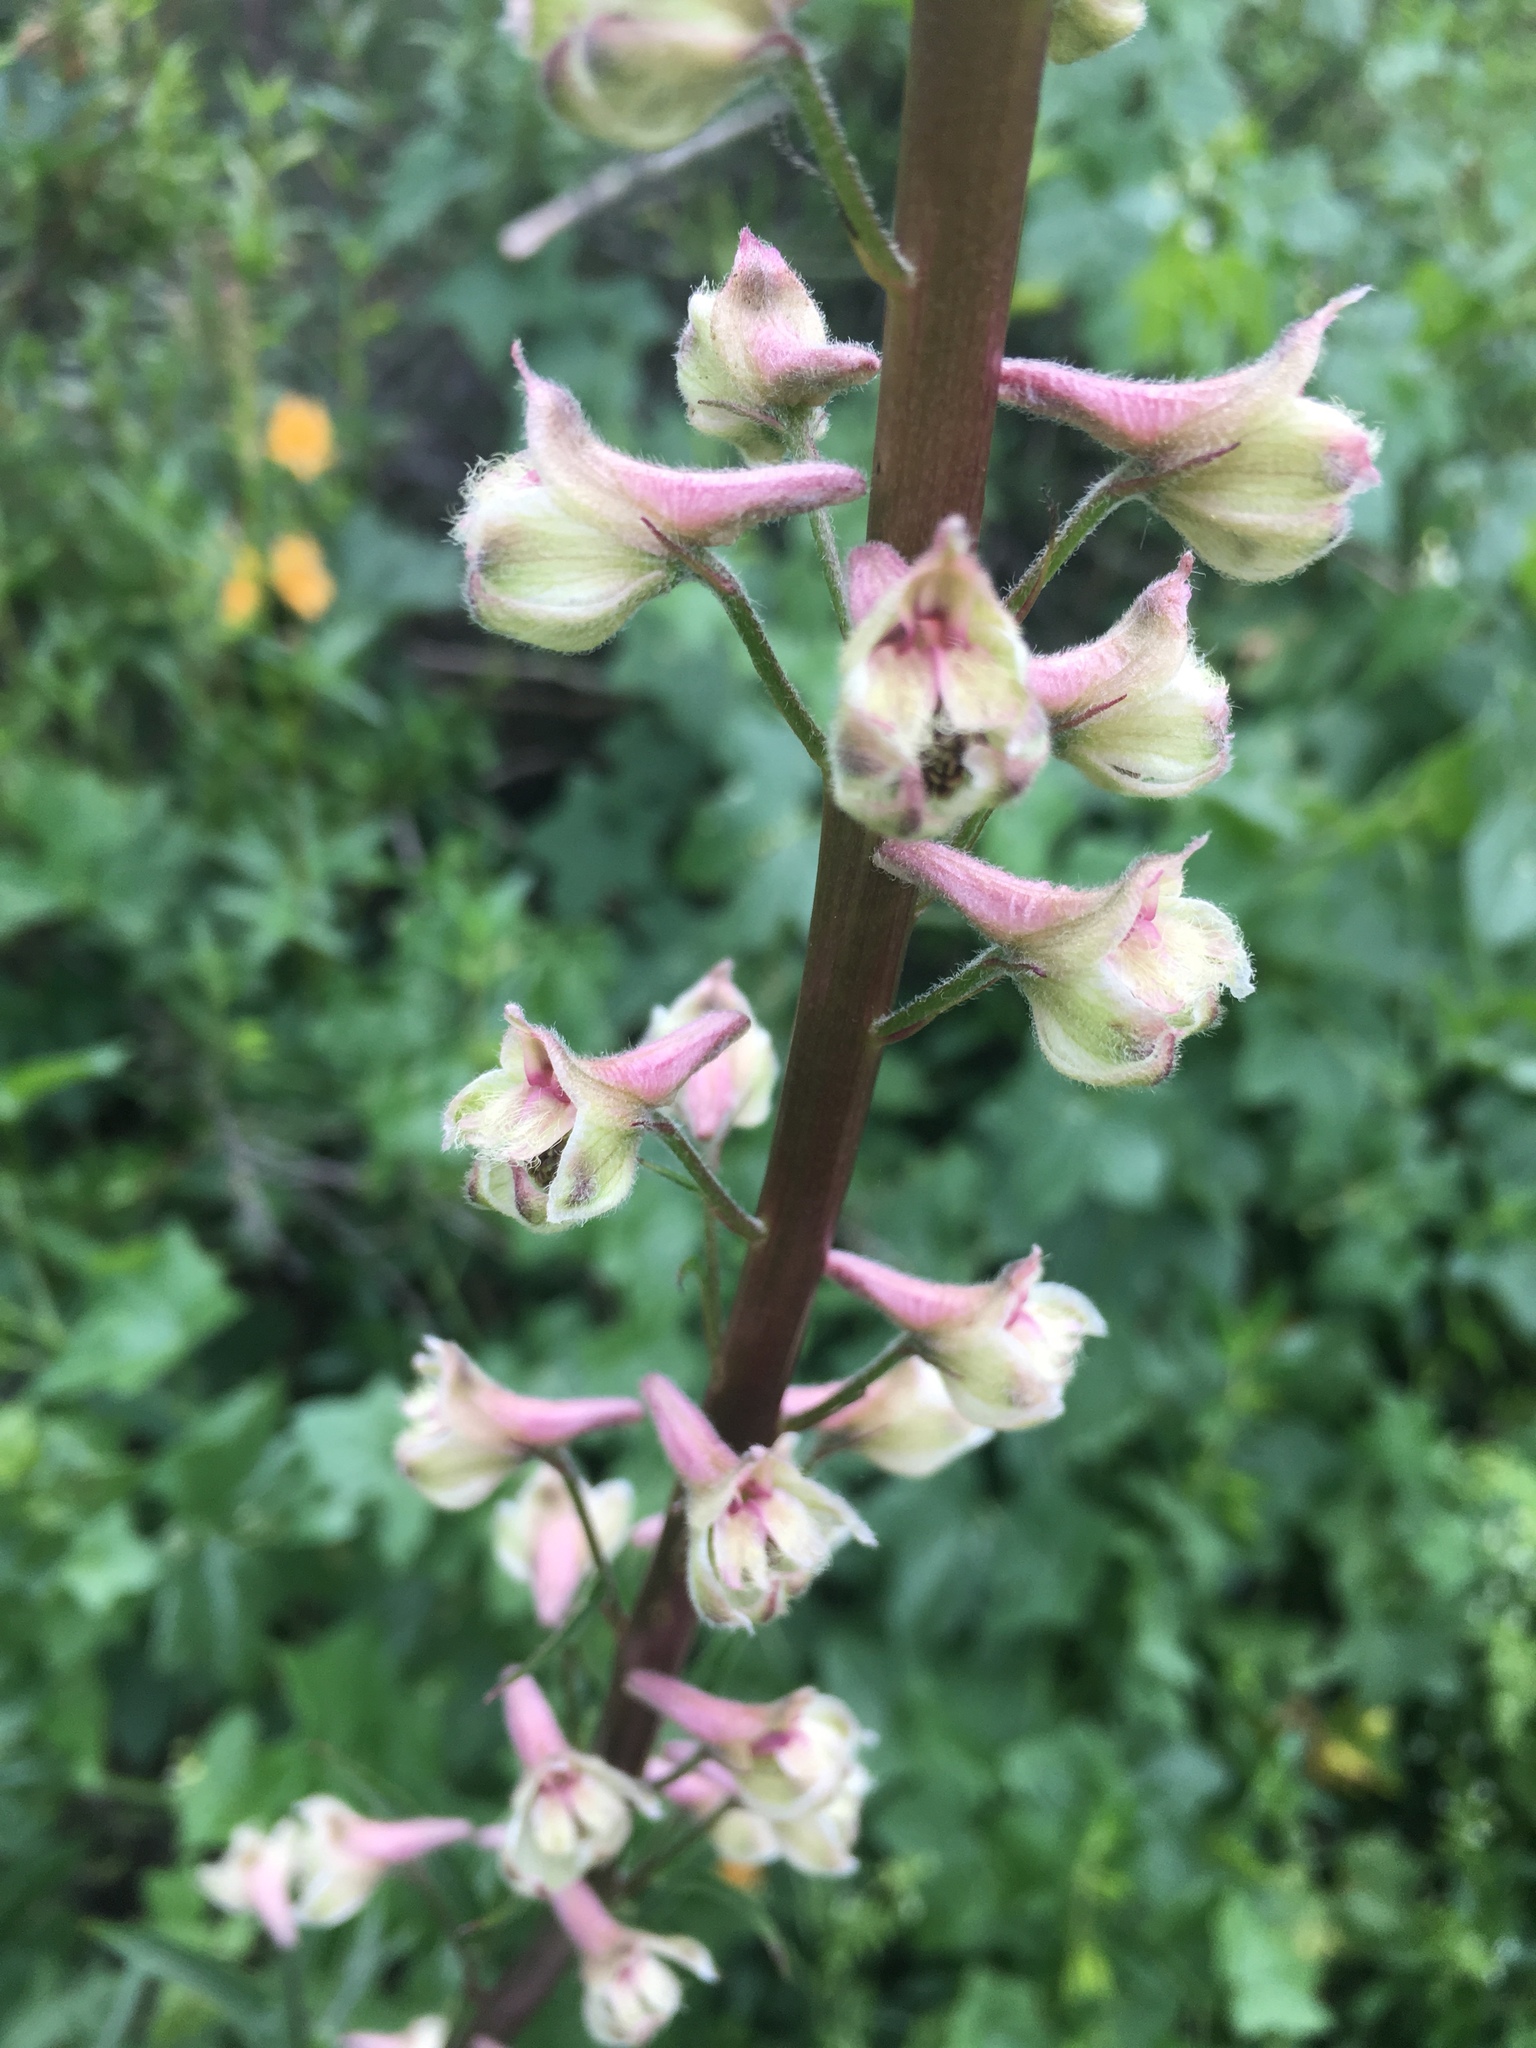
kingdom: Plantae
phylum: Tracheophyta
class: Magnoliopsida
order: Ranunculales
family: Ranunculaceae
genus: Delphinium
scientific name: Delphinium californicum
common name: California larkspur
